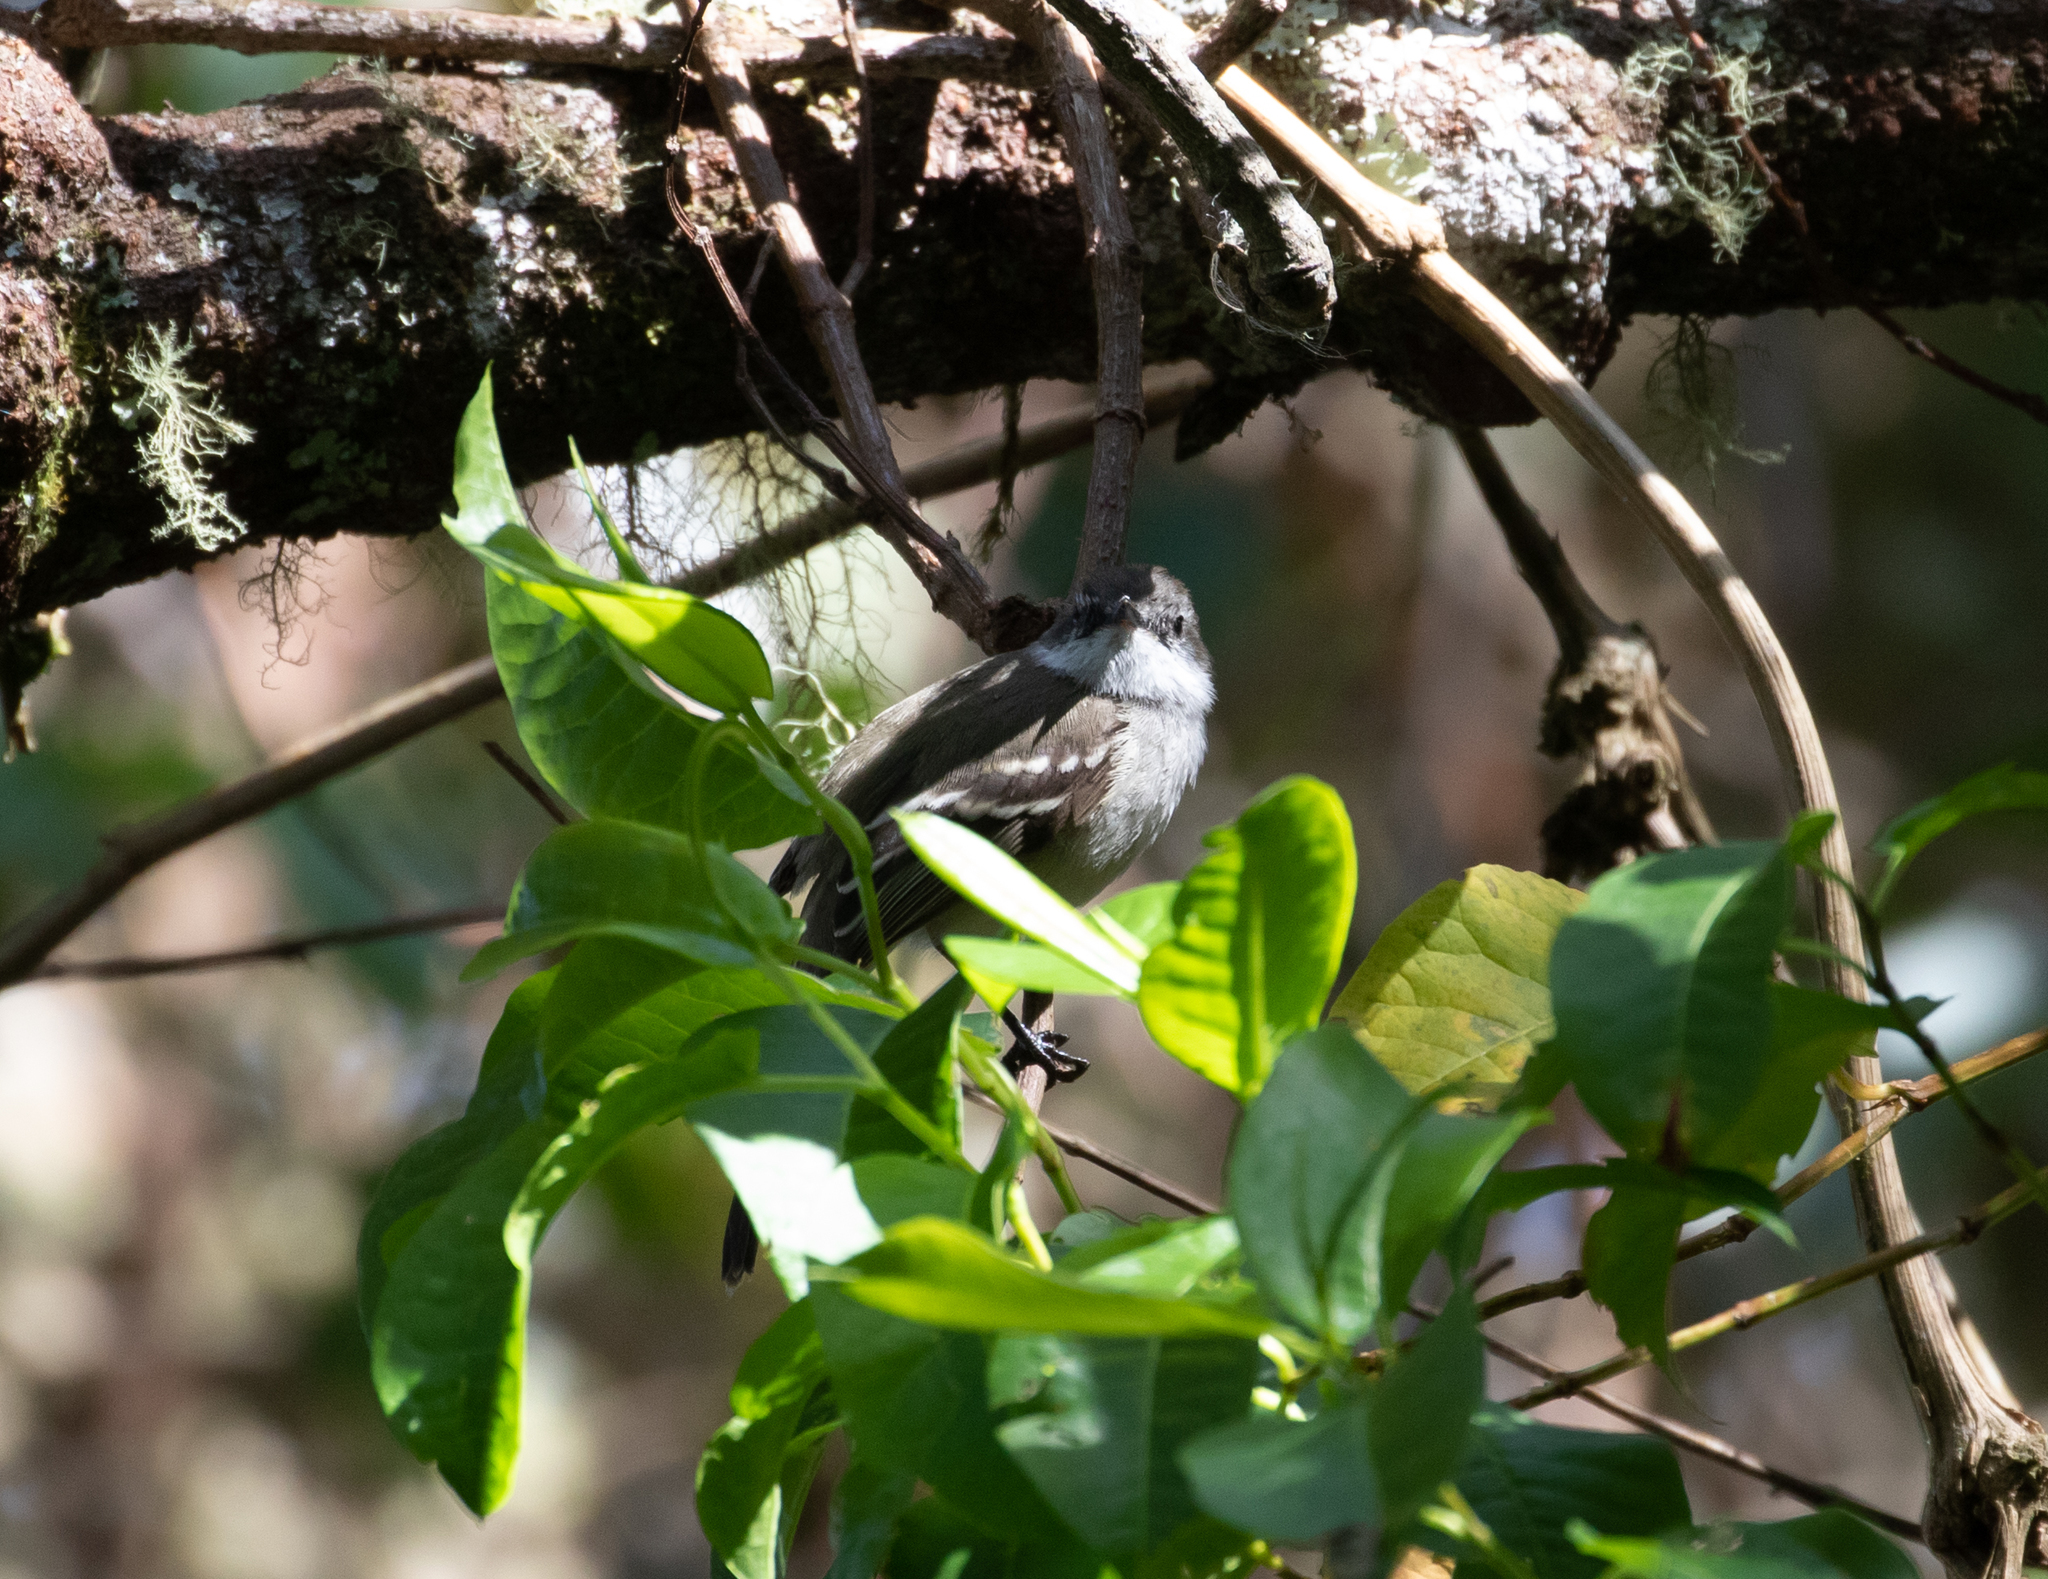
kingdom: Animalia
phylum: Chordata
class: Aves
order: Passeriformes
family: Tyrannidae
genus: Mecocerculus
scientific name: Mecocerculus leucophrys
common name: White-throated tyrannulet
